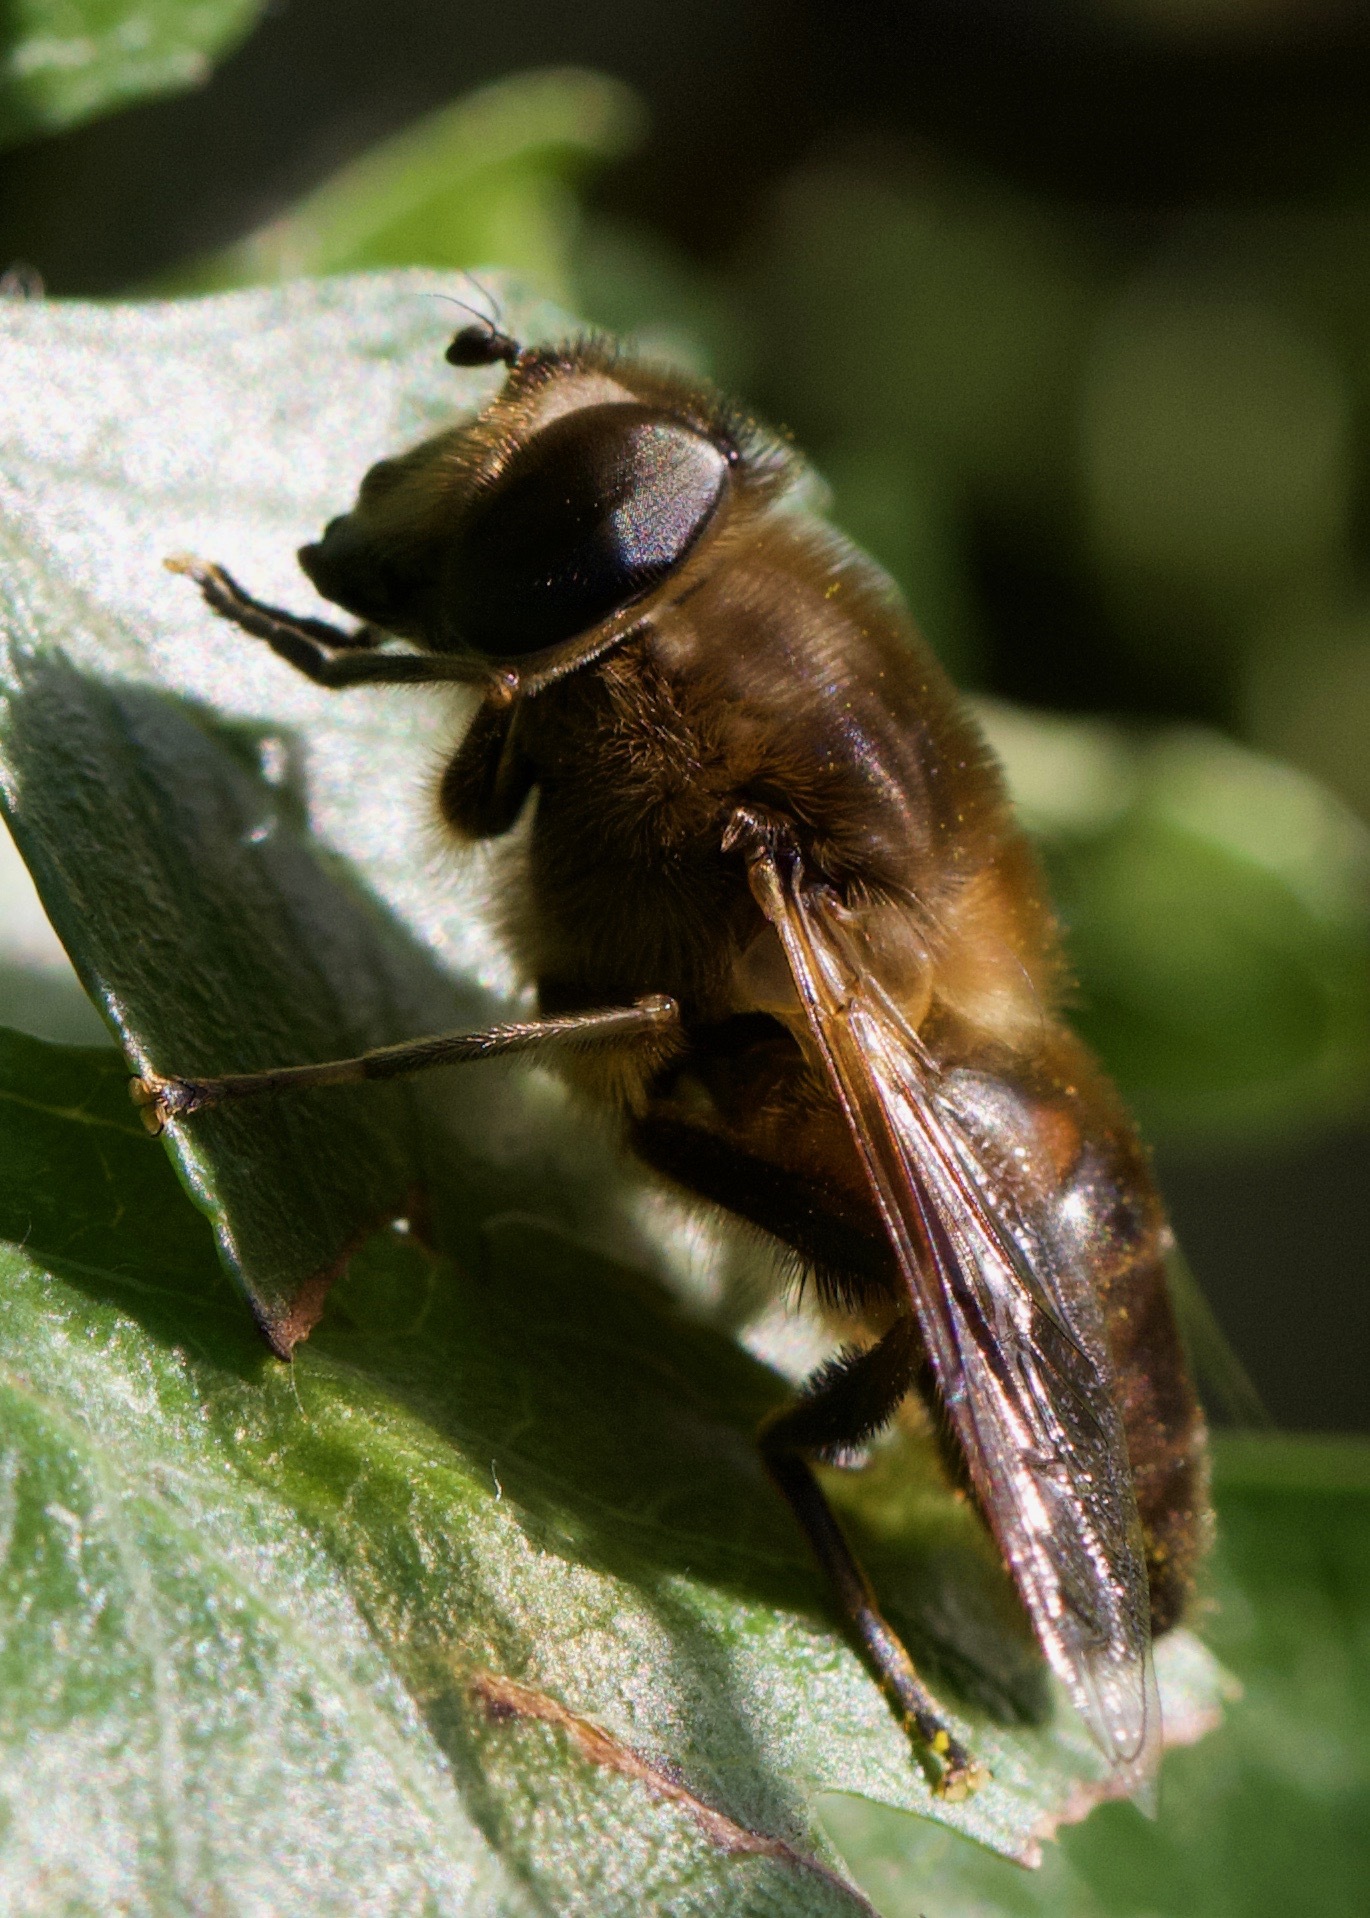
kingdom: Animalia
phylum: Arthropoda
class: Insecta
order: Diptera
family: Syrphidae
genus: Eristalis
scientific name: Eristalis tenax
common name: Drone fly
